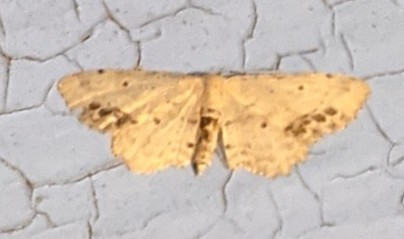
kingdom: Animalia
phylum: Arthropoda
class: Insecta
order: Lepidoptera
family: Geometridae
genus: Idaea
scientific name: Idaea dimidiata
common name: Single-dotted wave
